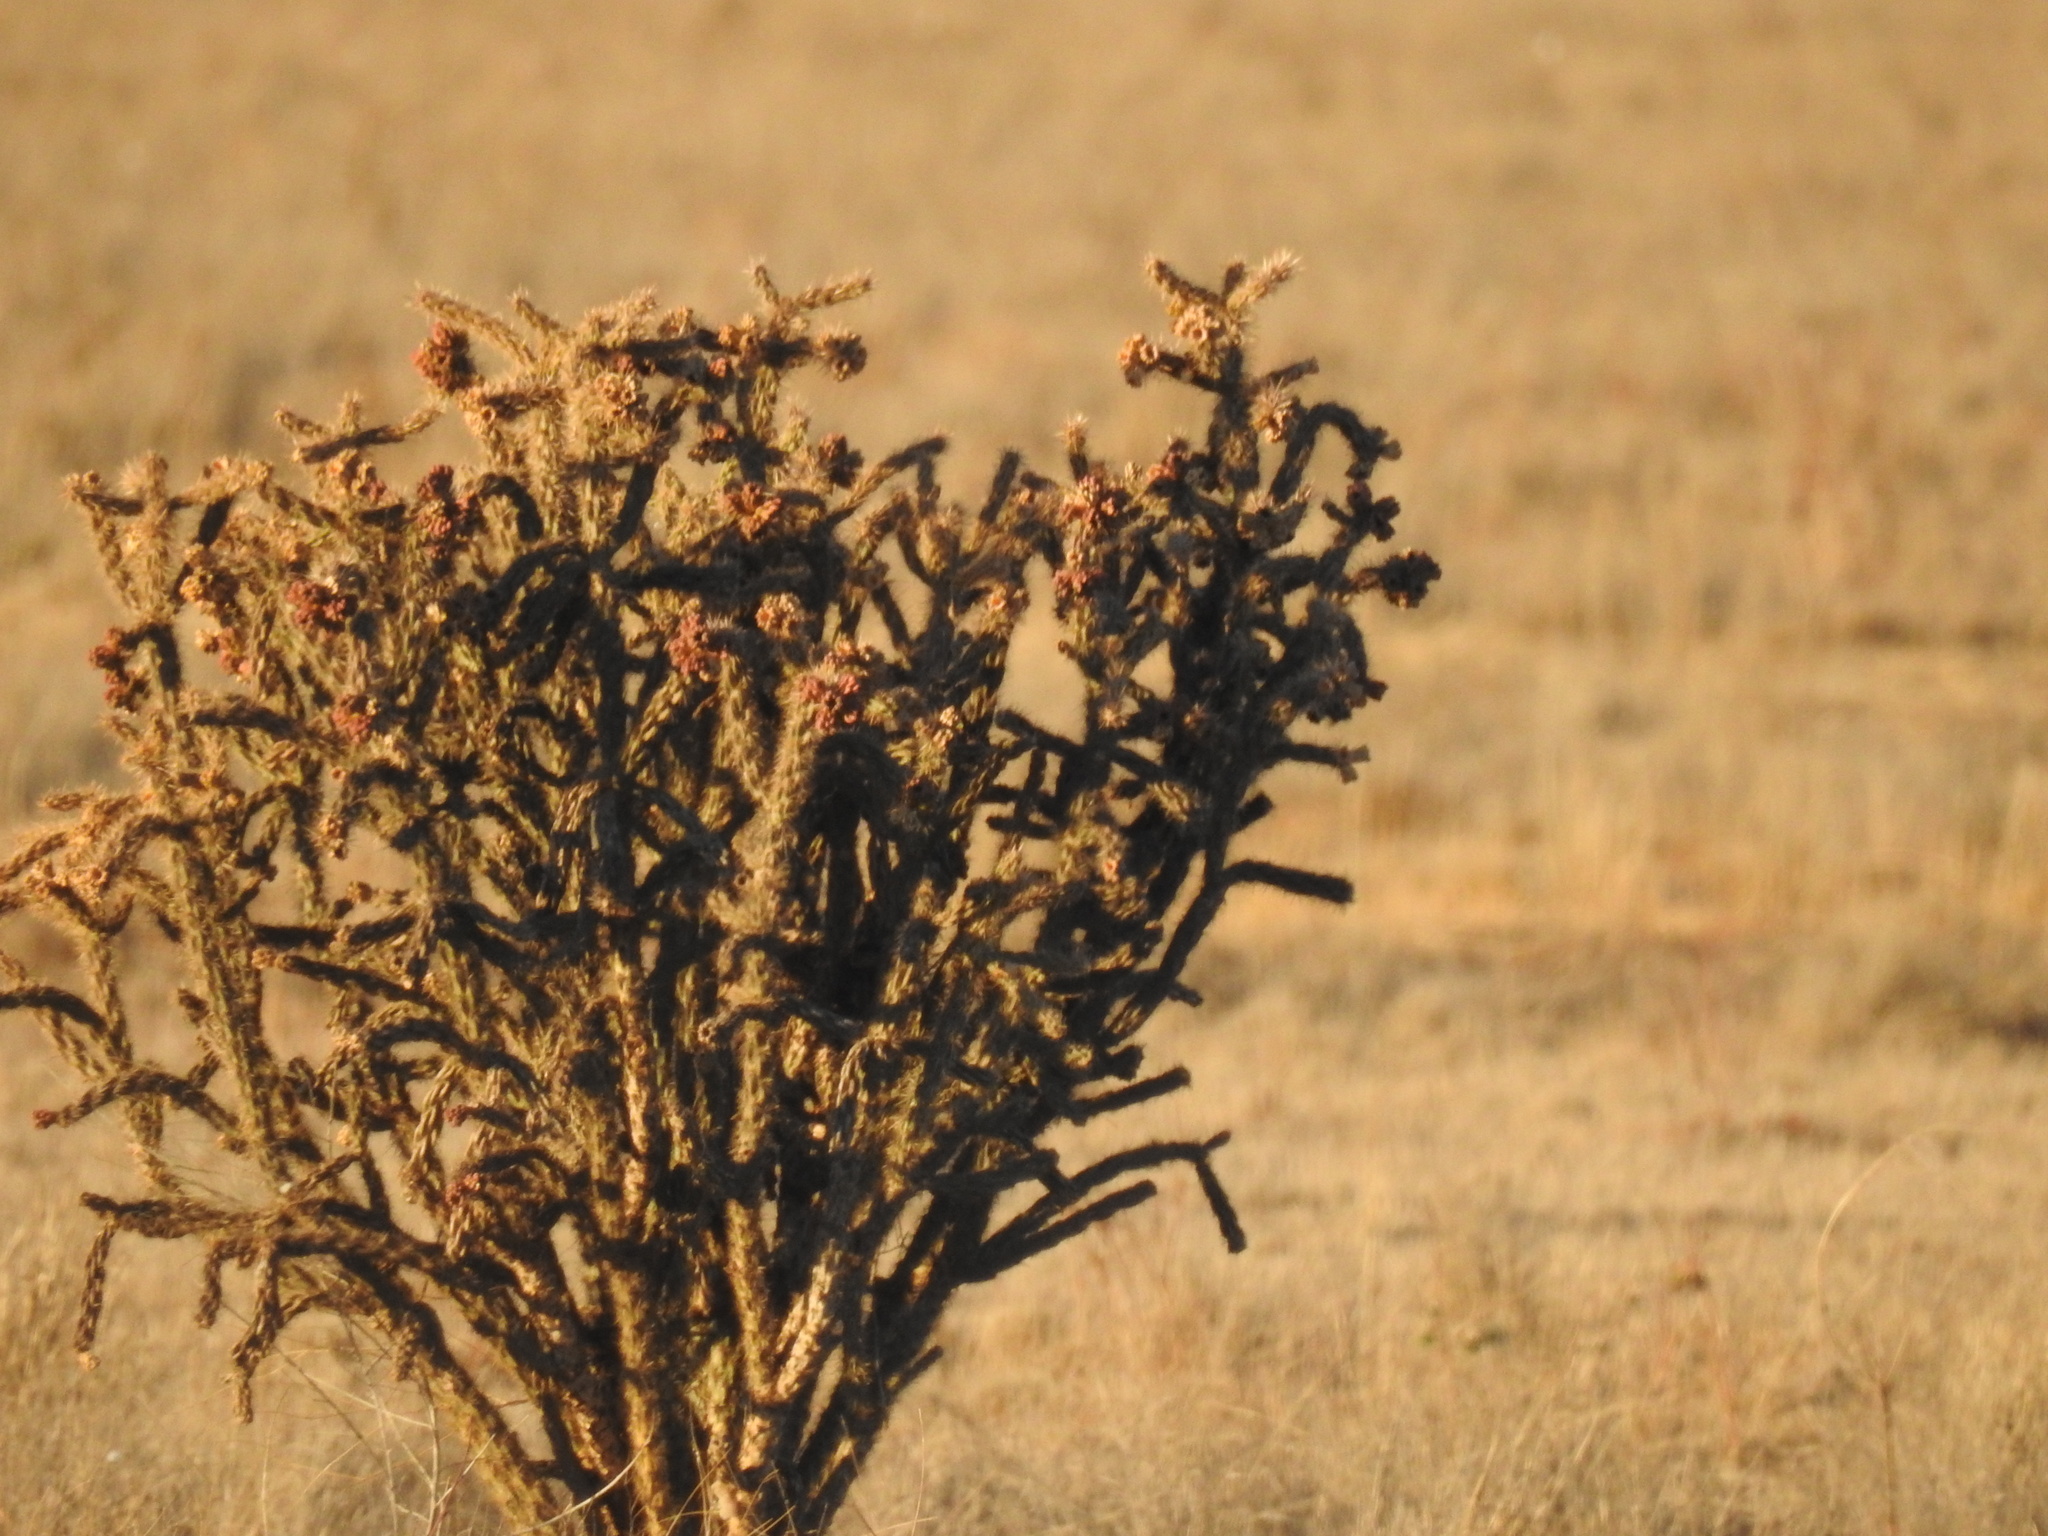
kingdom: Plantae
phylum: Tracheophyta
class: Magnoliopsida
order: Caryophyllales
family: Cactaceae
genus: Cylindropuntia
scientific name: Cylindropuntia imbricata
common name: Candelabrum cactus
